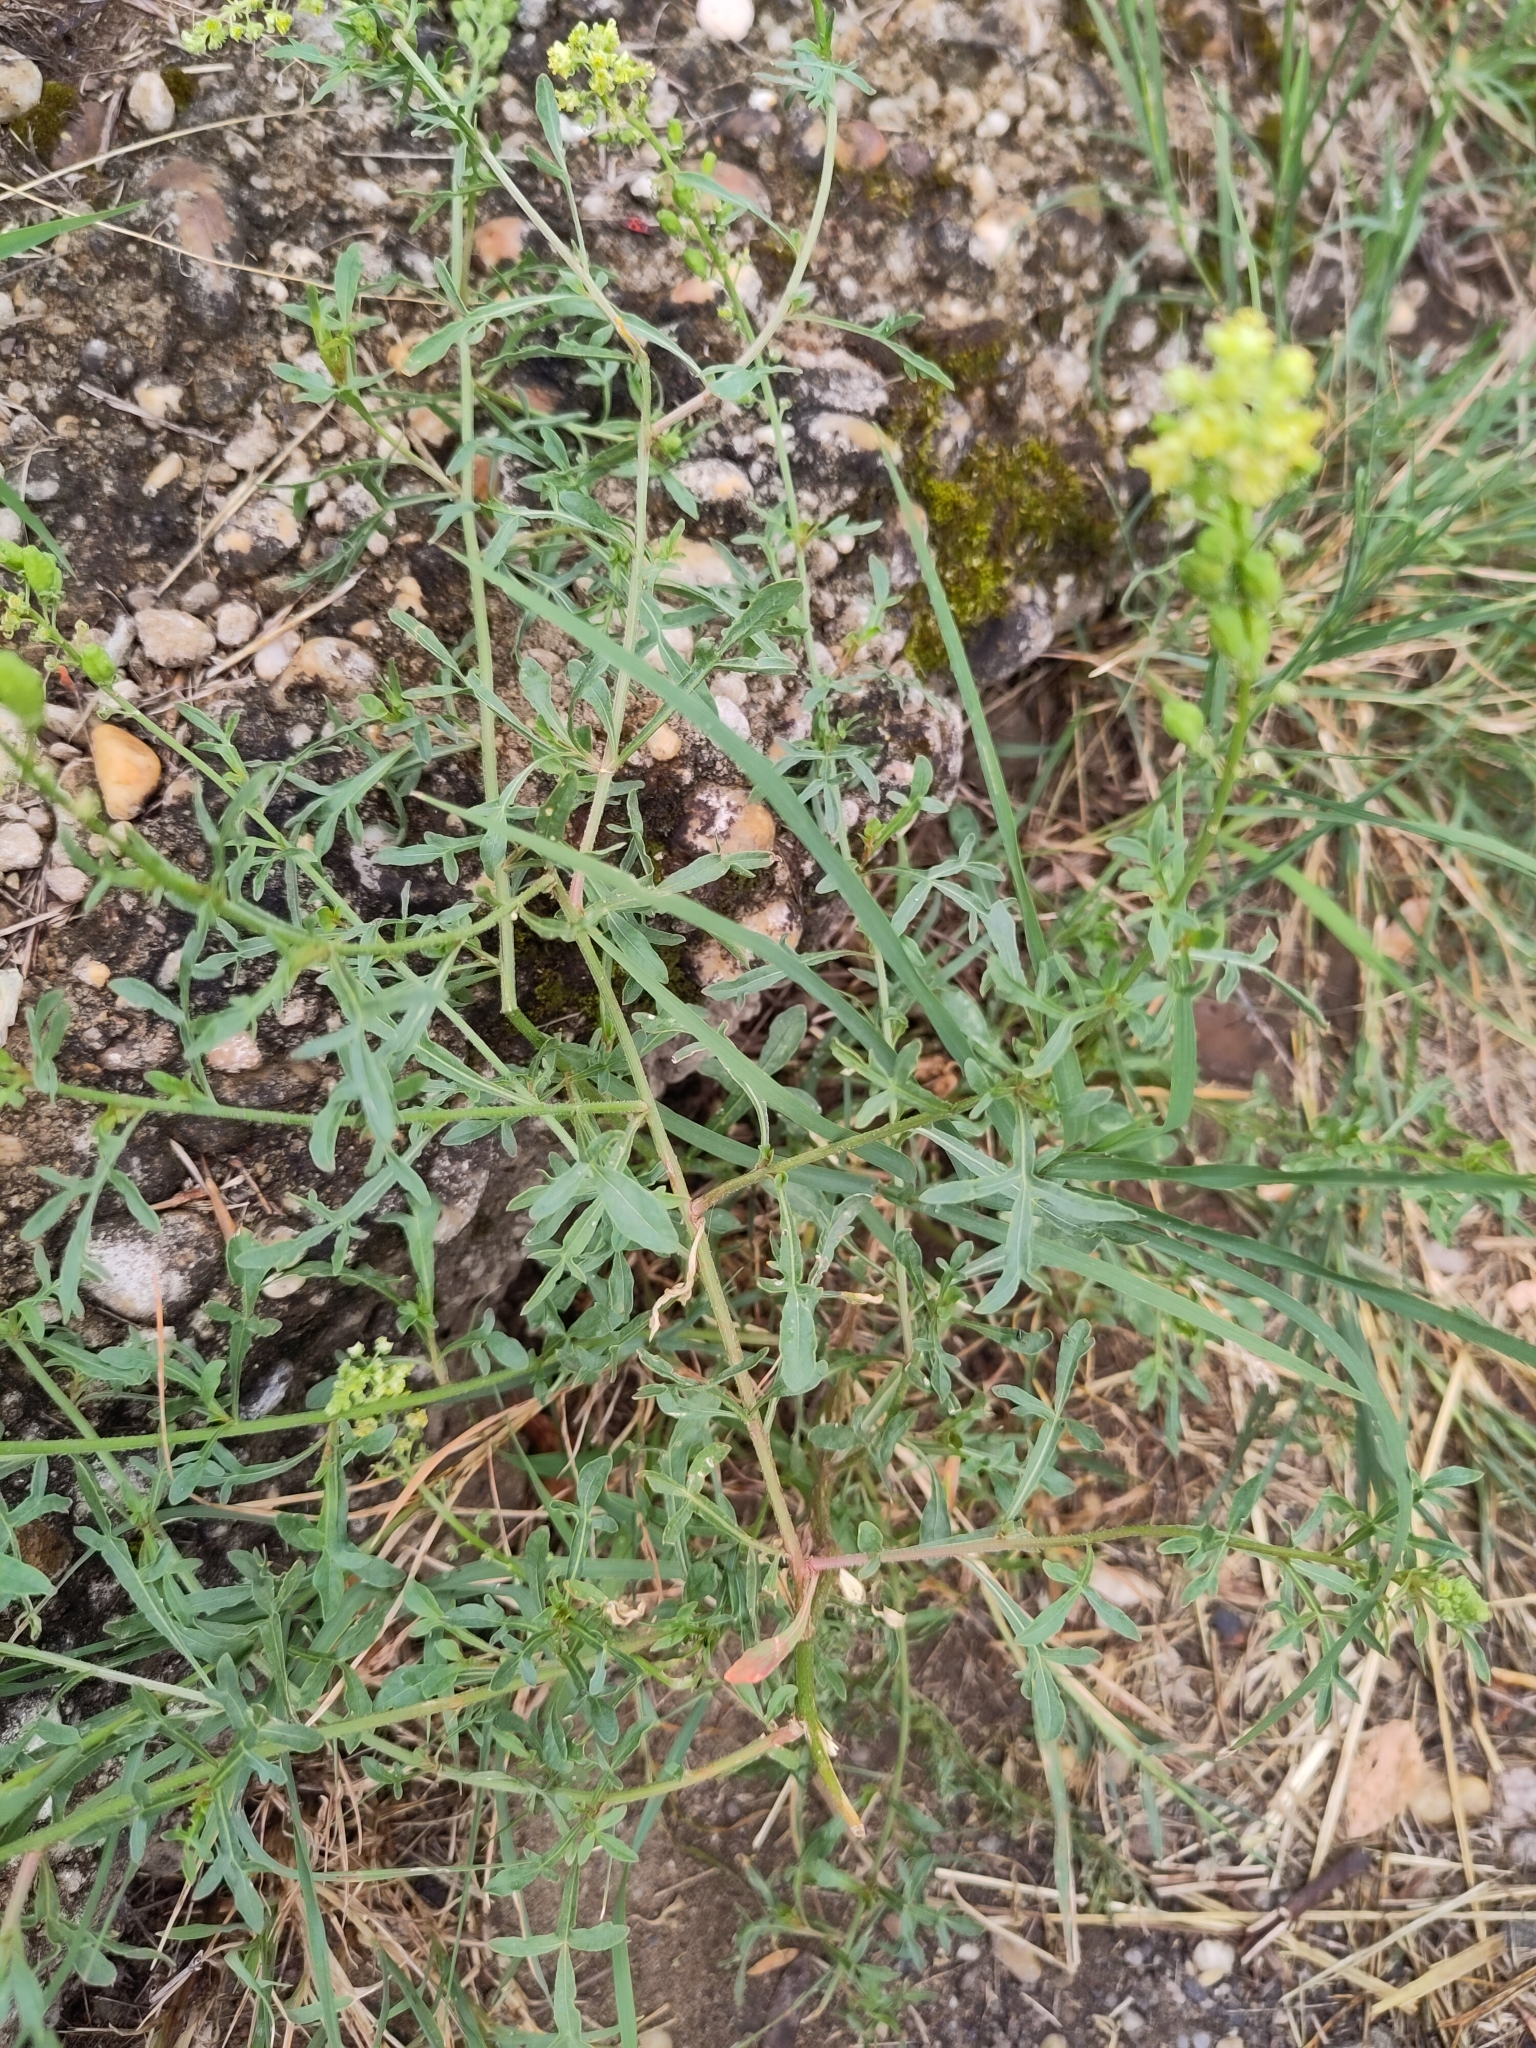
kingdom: Plantae
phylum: Tracheophyta
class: Magnoliopsida
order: Brassicales
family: Resedaceae
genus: Reseda
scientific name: Reseda lutea
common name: Wild mignonette
